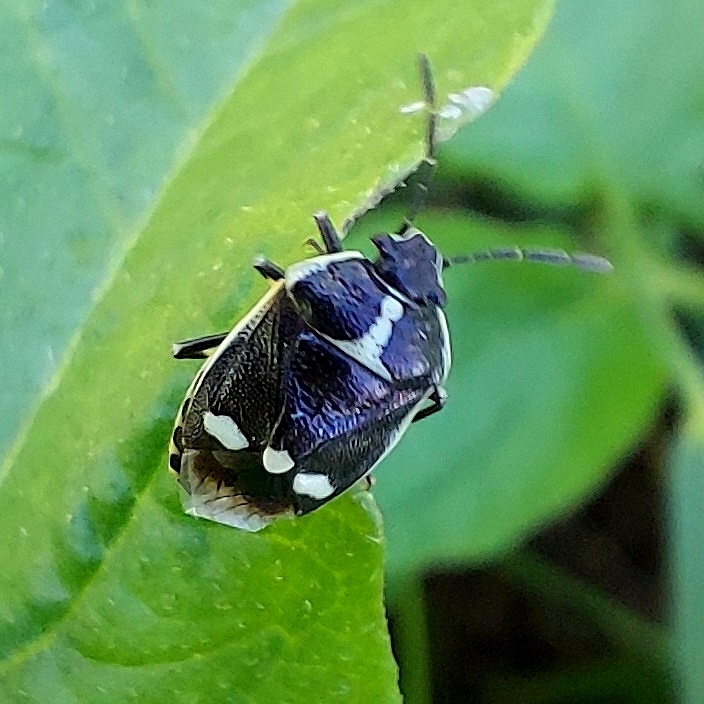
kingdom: Animalia
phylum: Arthropoda
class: Insecta
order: Hemiptera
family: Pentatomidae
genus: Eurydema
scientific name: Eurydema oleracea
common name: Cabbage bug
